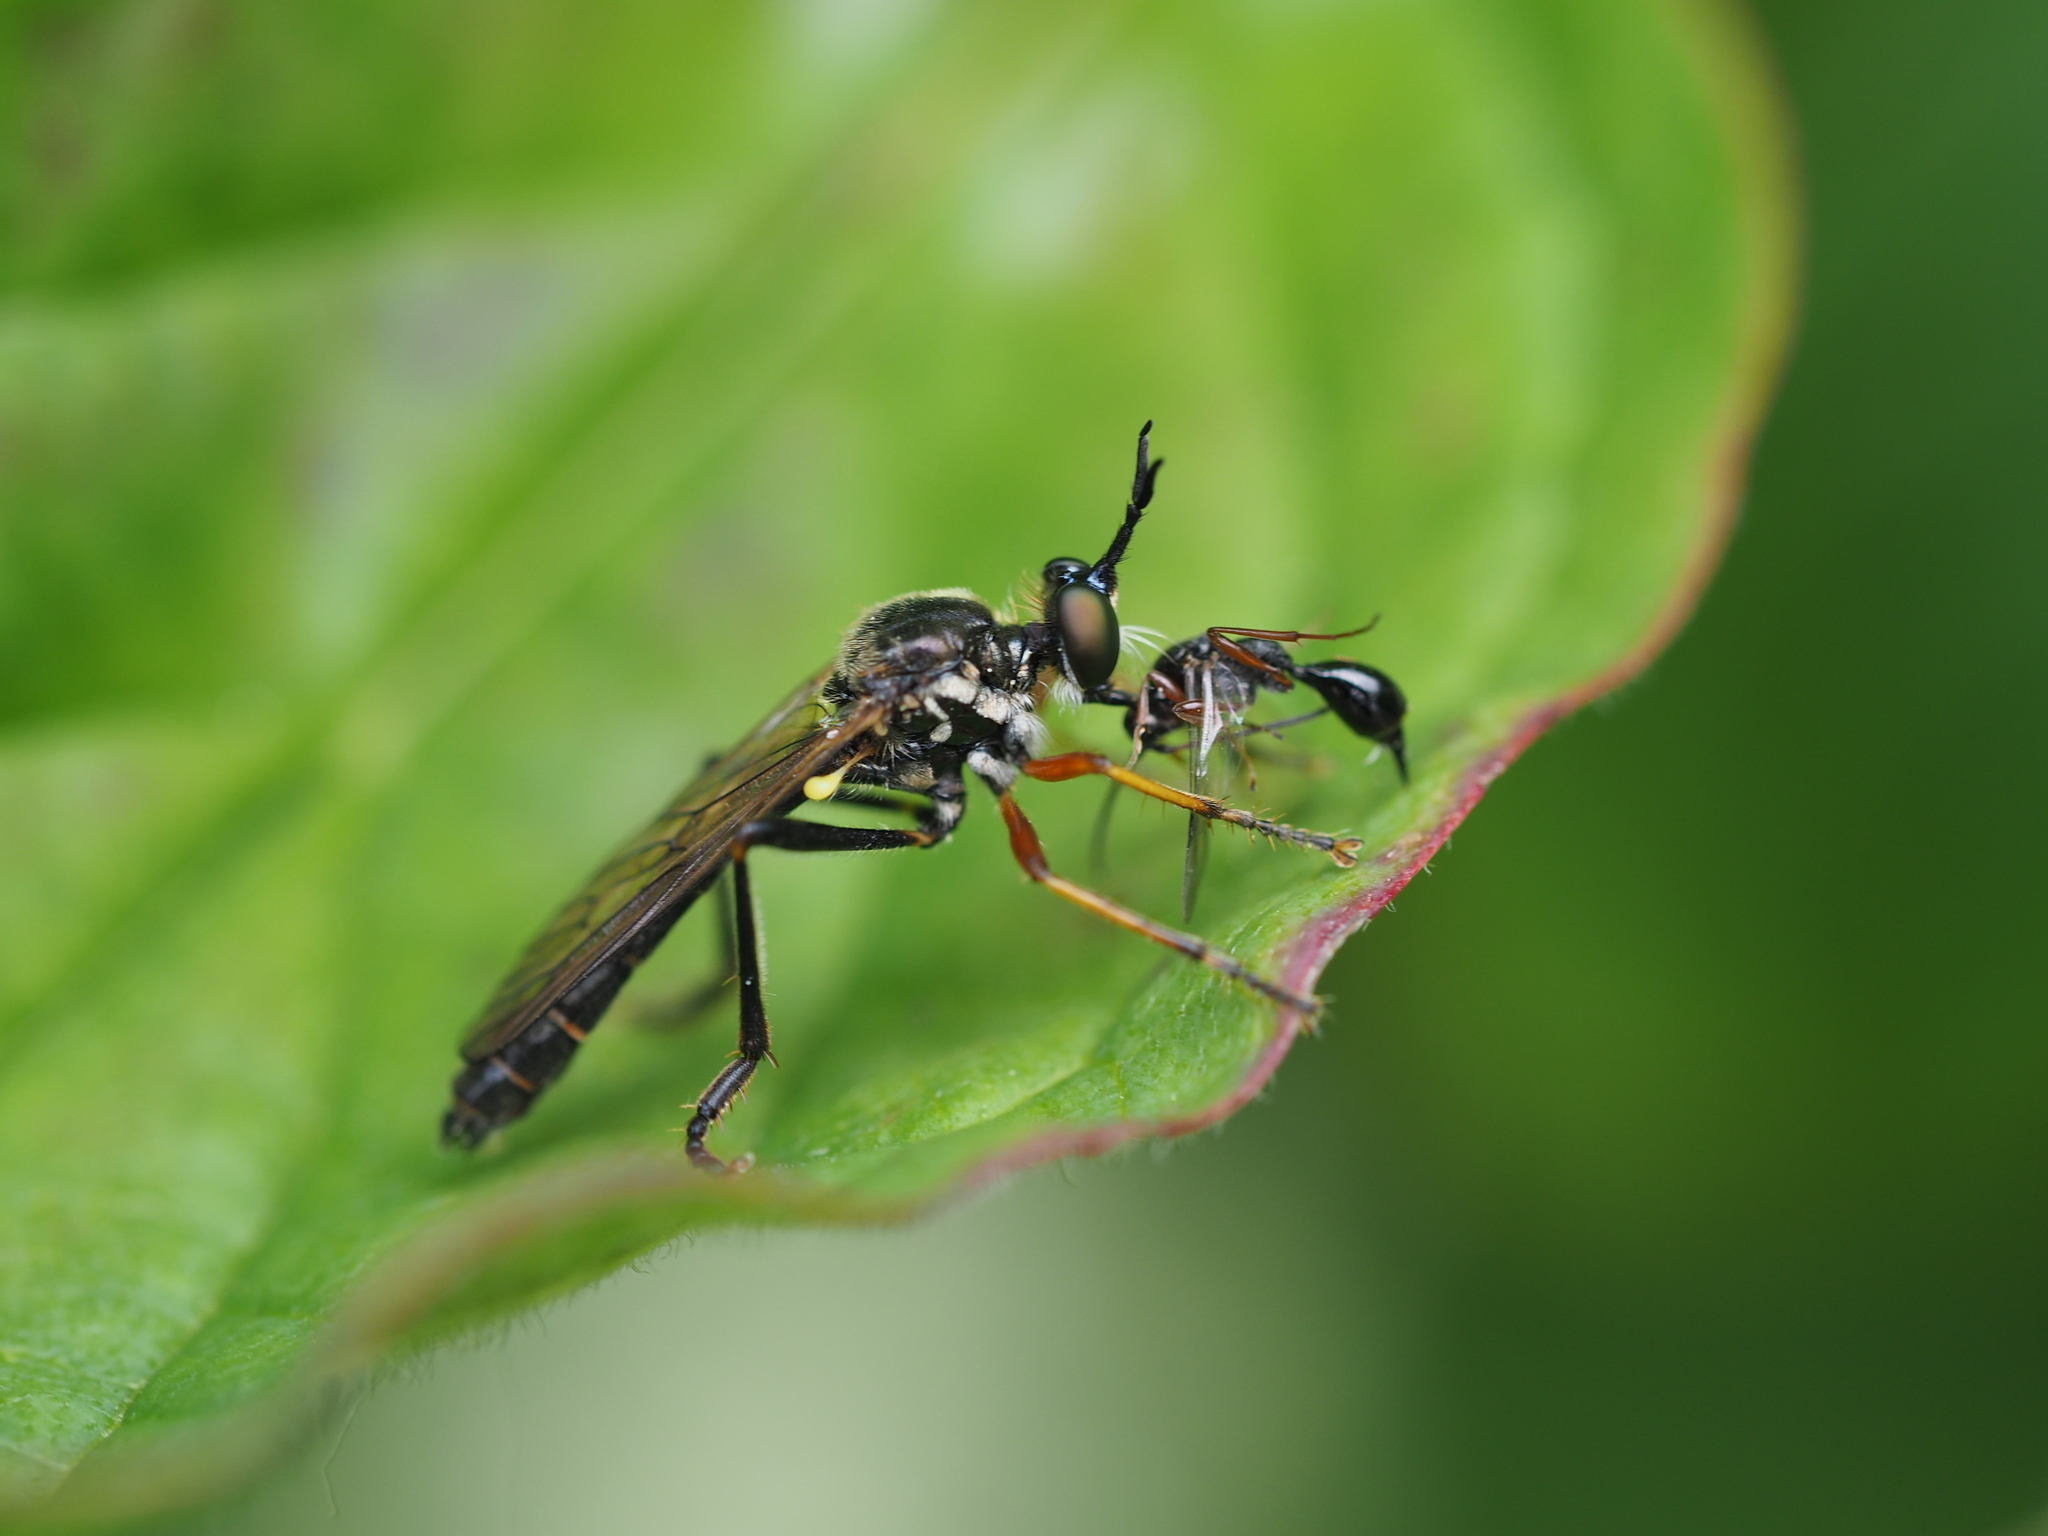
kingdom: Animalia
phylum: Arthropoda
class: Insecta
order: Diptera
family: Asilidae
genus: Dioctria
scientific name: Dioctria rufipes
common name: Common red-legged robberfly
